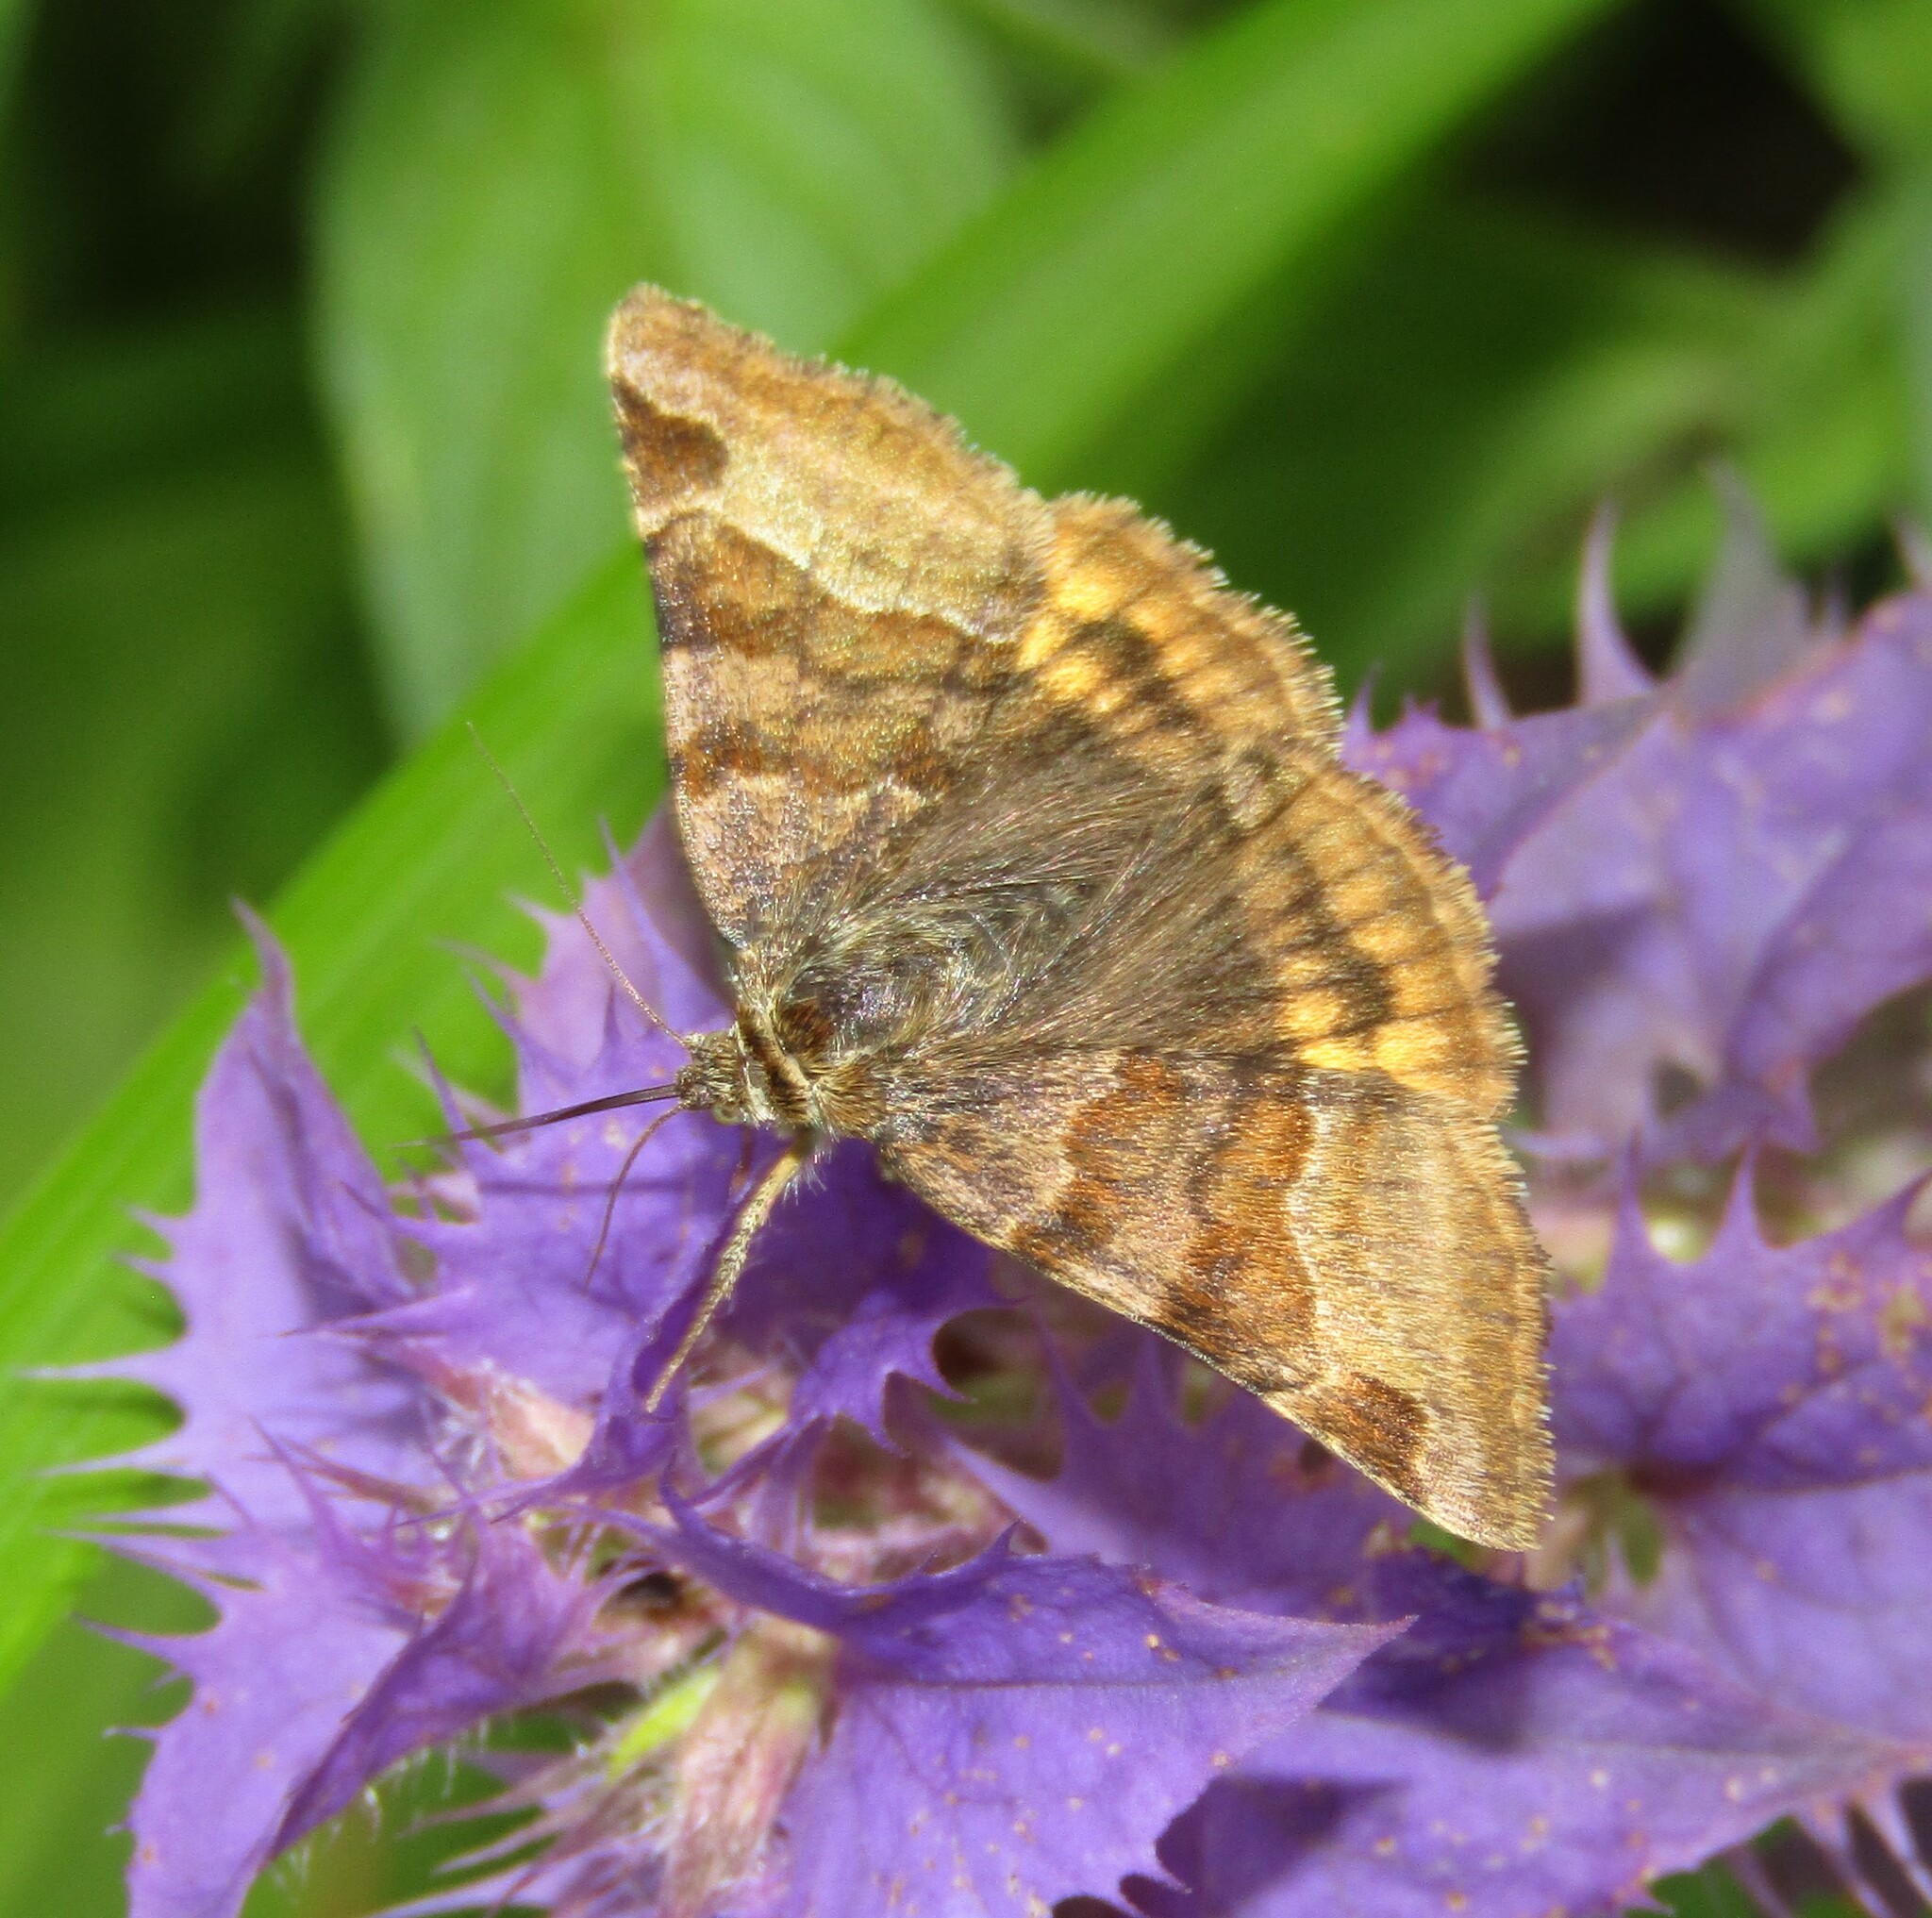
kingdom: Animalia
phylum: Arthropoda
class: Insecta
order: Lepidoptera
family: Erebidae
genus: Euclidia
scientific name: Euclidia glyphica
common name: Burnet companion
